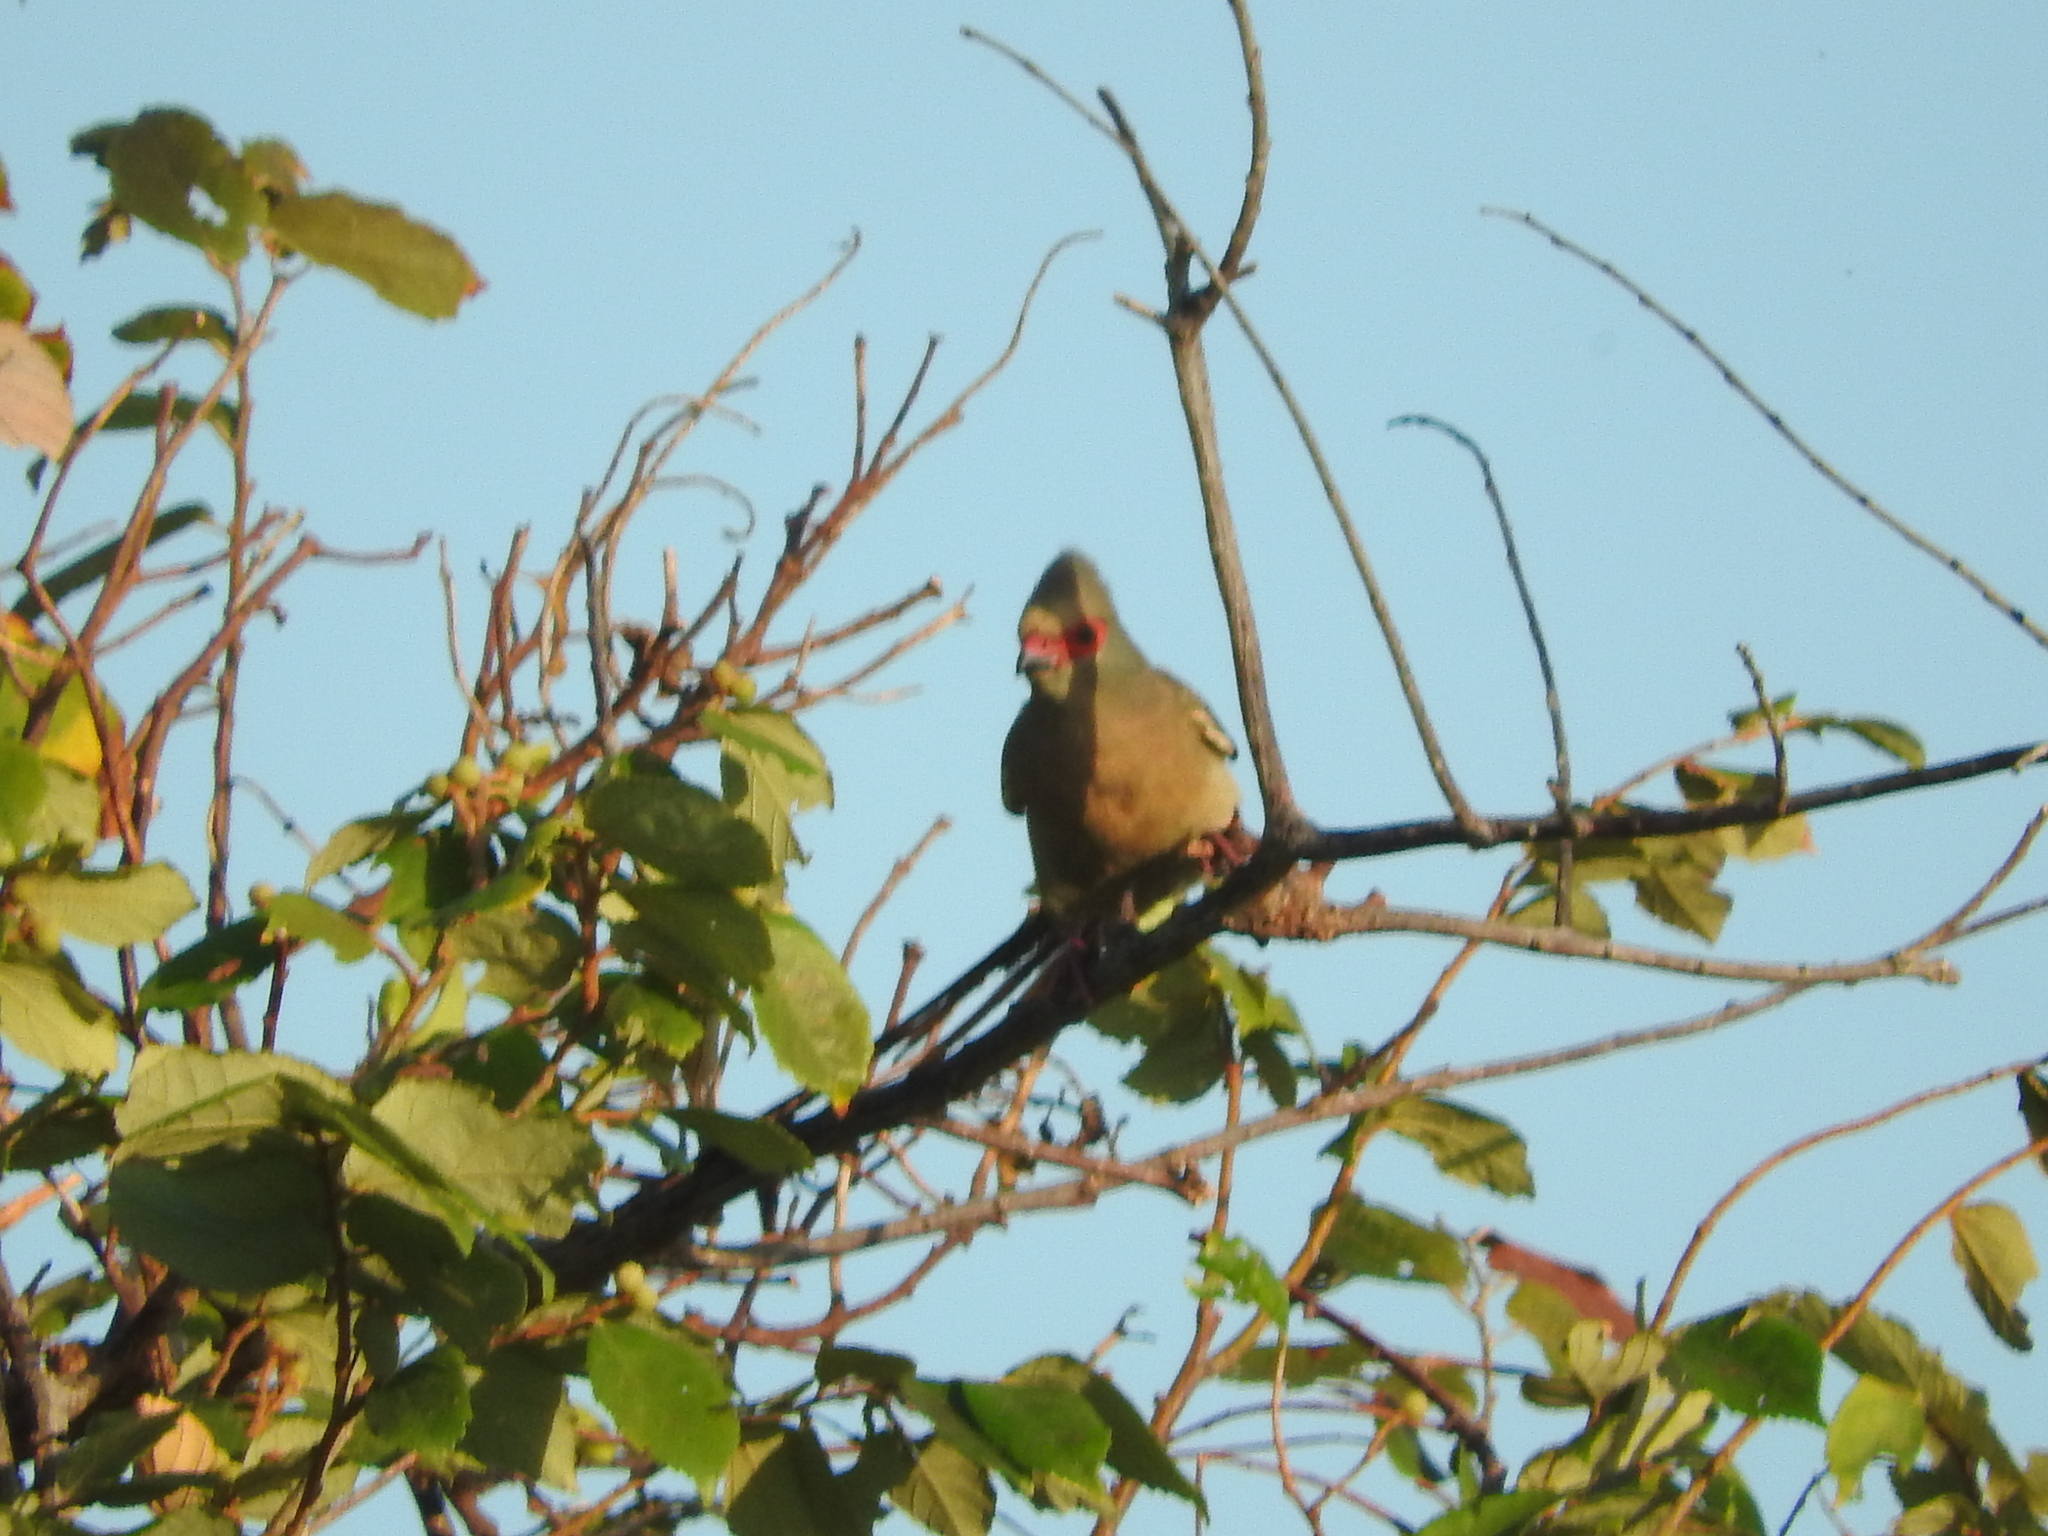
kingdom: Animalia
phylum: Chordata
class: Aves
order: Coliiformes
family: Coliidae
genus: Urocolius
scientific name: Urocolius indicus
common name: Red-faced mousebird
